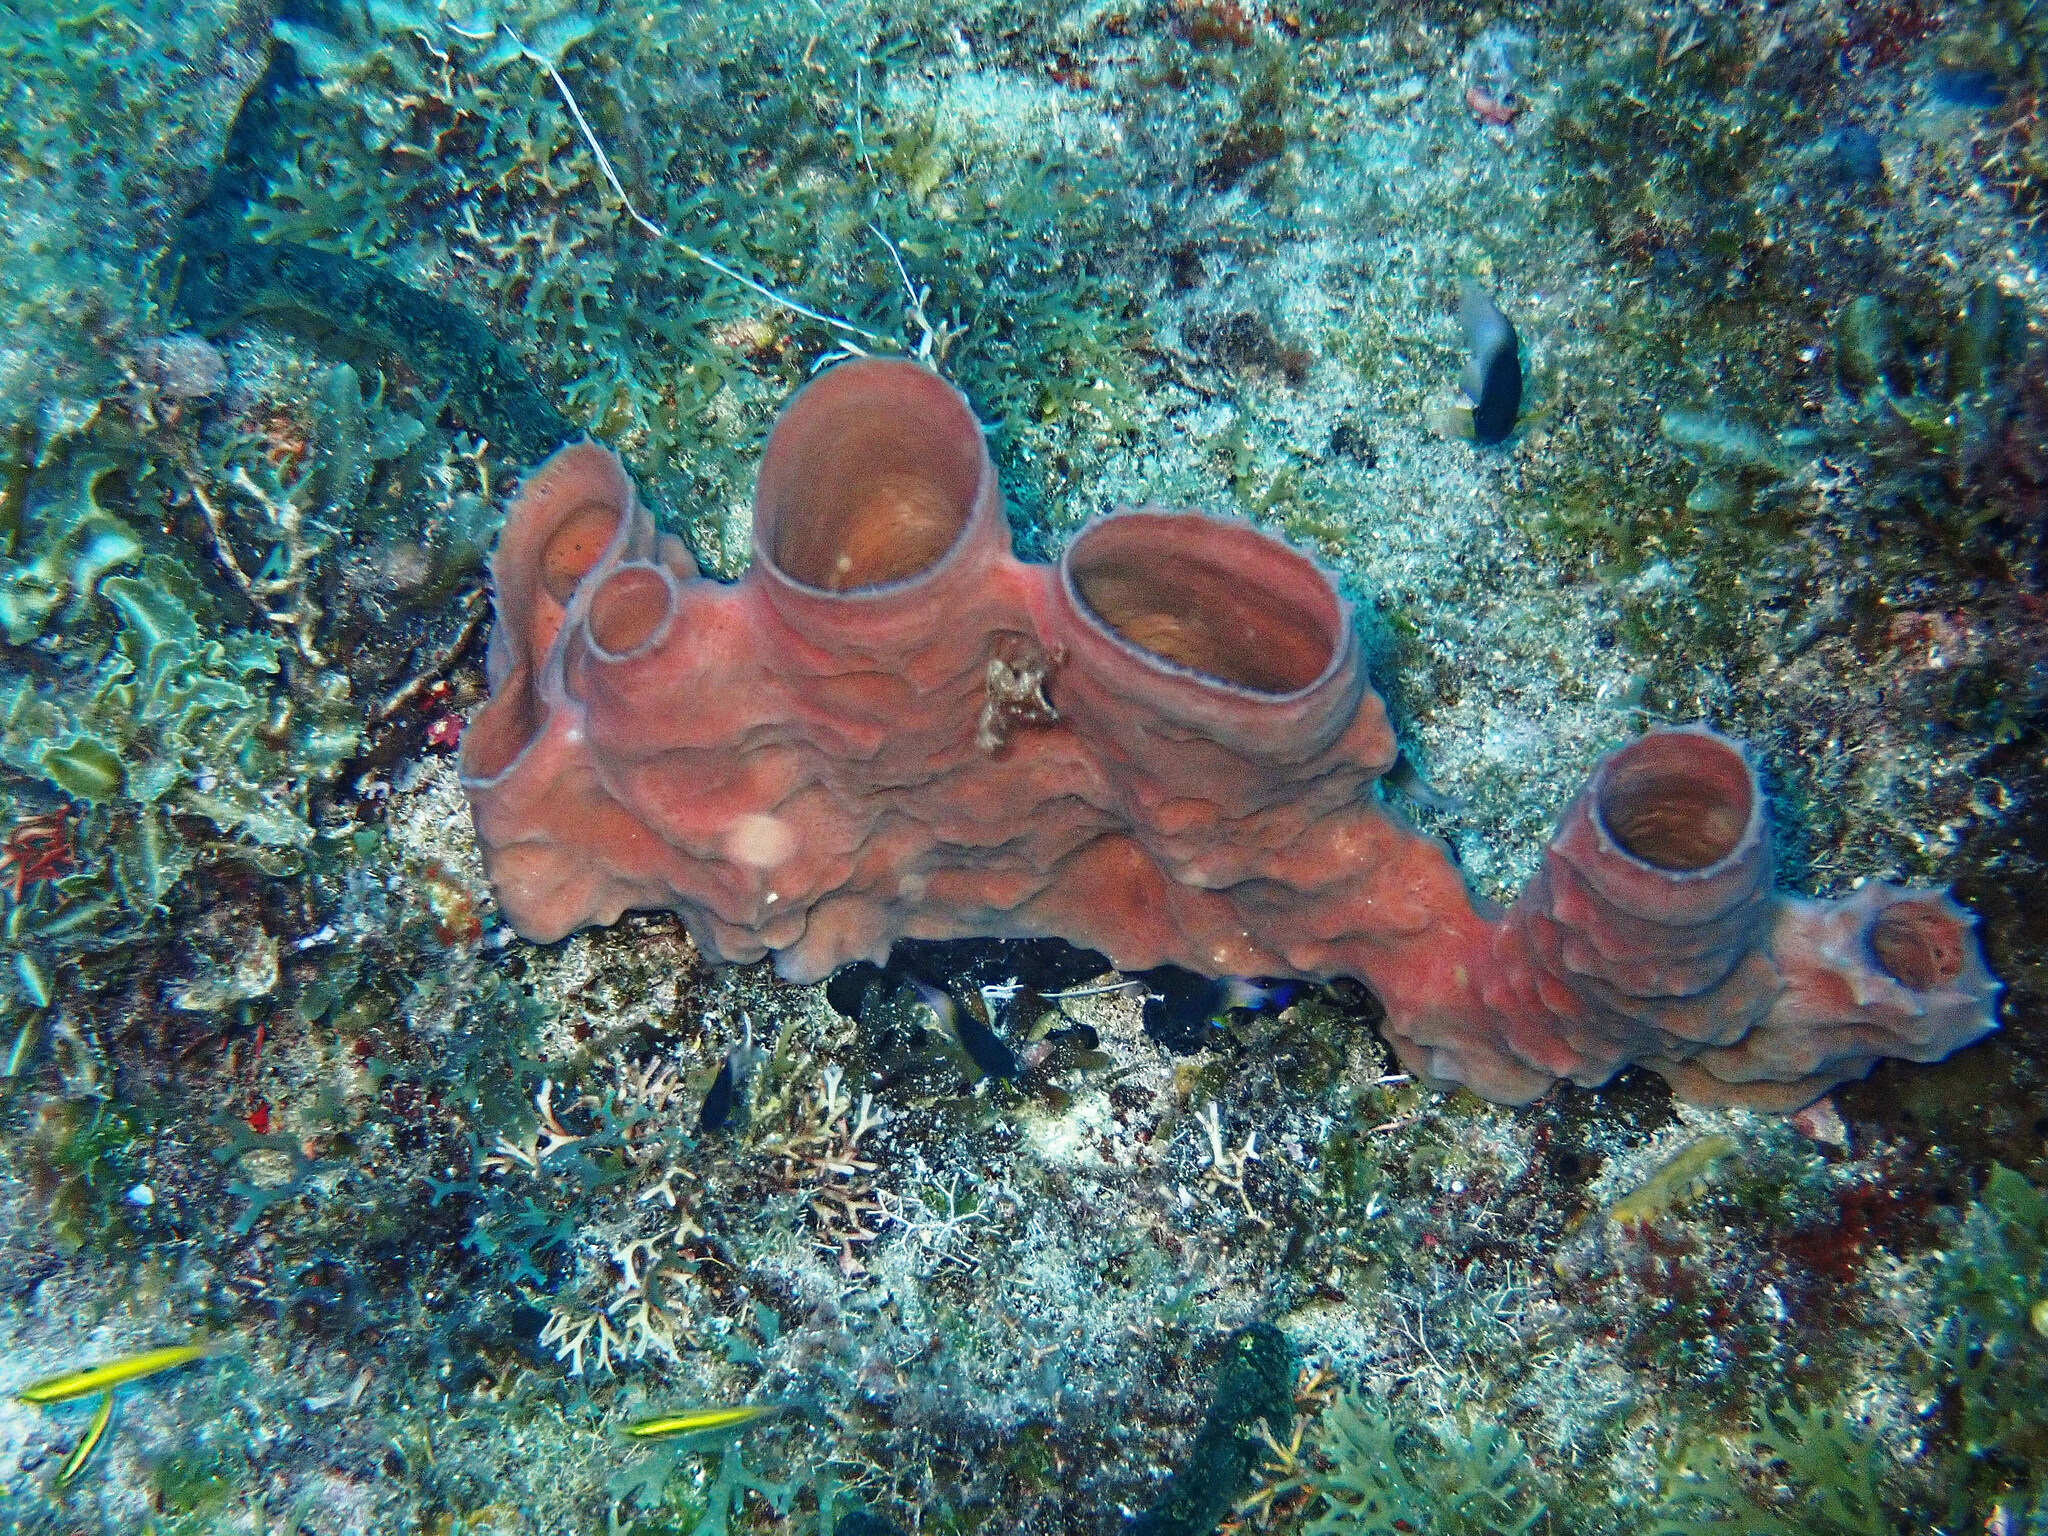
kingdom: Animalia
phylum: Porifera
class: Demospongiae
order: Haplosclerida
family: Callyspongiidae
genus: Callyspongia
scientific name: Callyspongia aculeata
